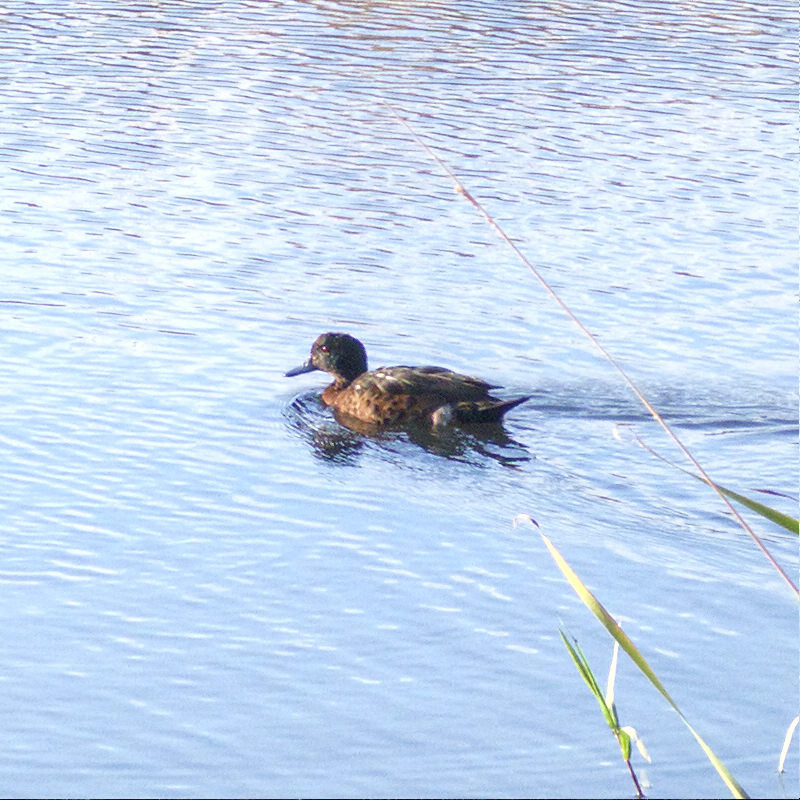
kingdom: Animalia
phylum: Chordata
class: Aves
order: Anseriformes
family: Anatidae
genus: Anas
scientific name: Anas castanea
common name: Chestnut teal
